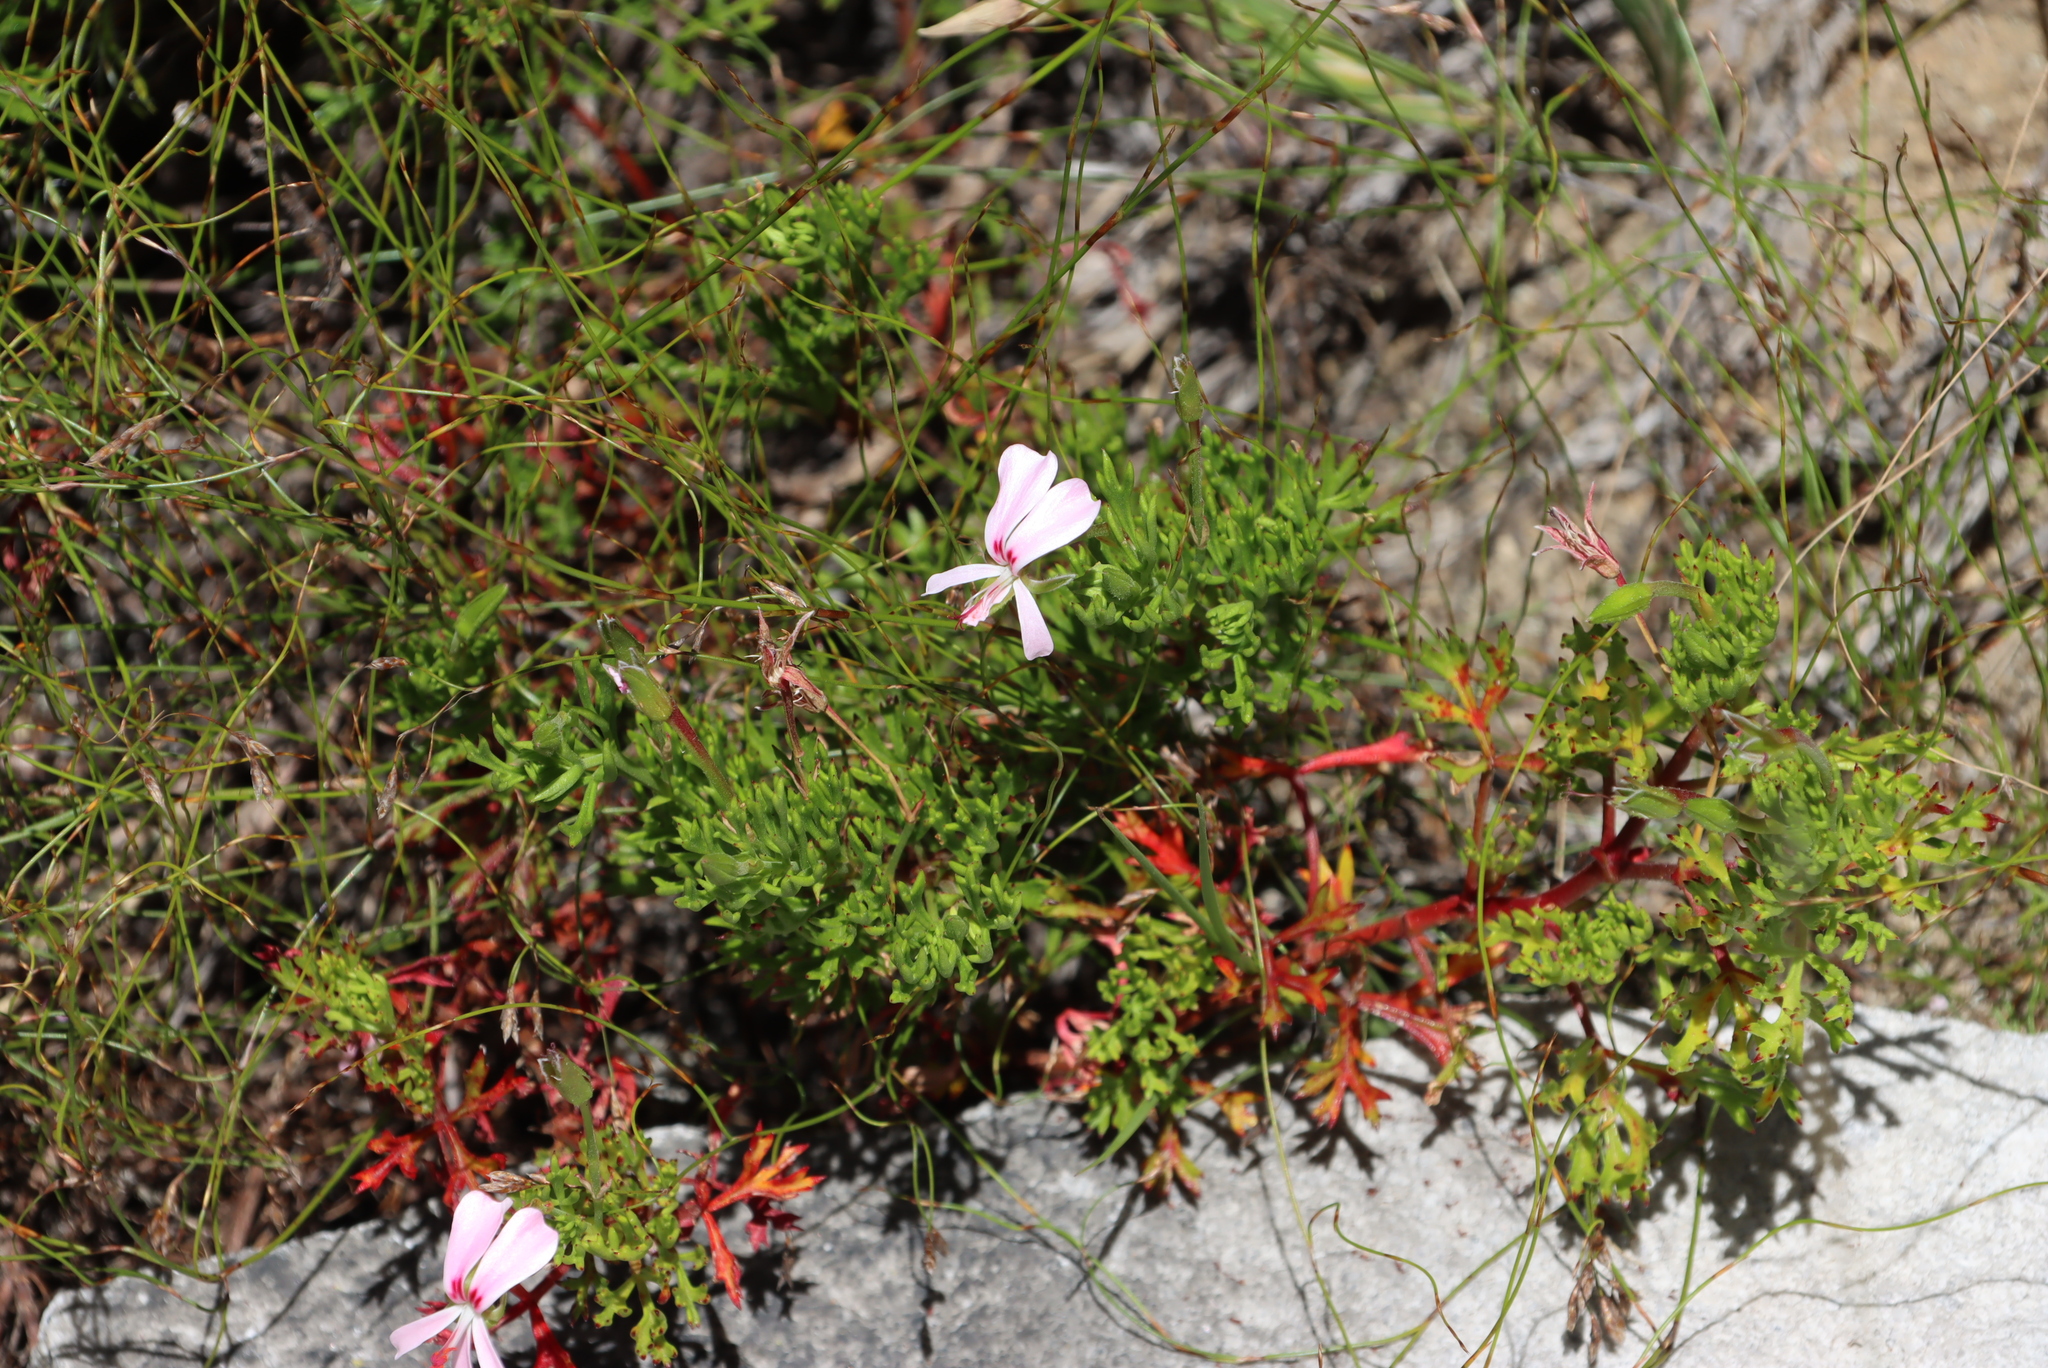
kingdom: Plantae
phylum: Tracheophyta
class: Magnoliopsida
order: Geraniales
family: Geraniaceae
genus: Pelargonium
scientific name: Pelargonium ternatum
